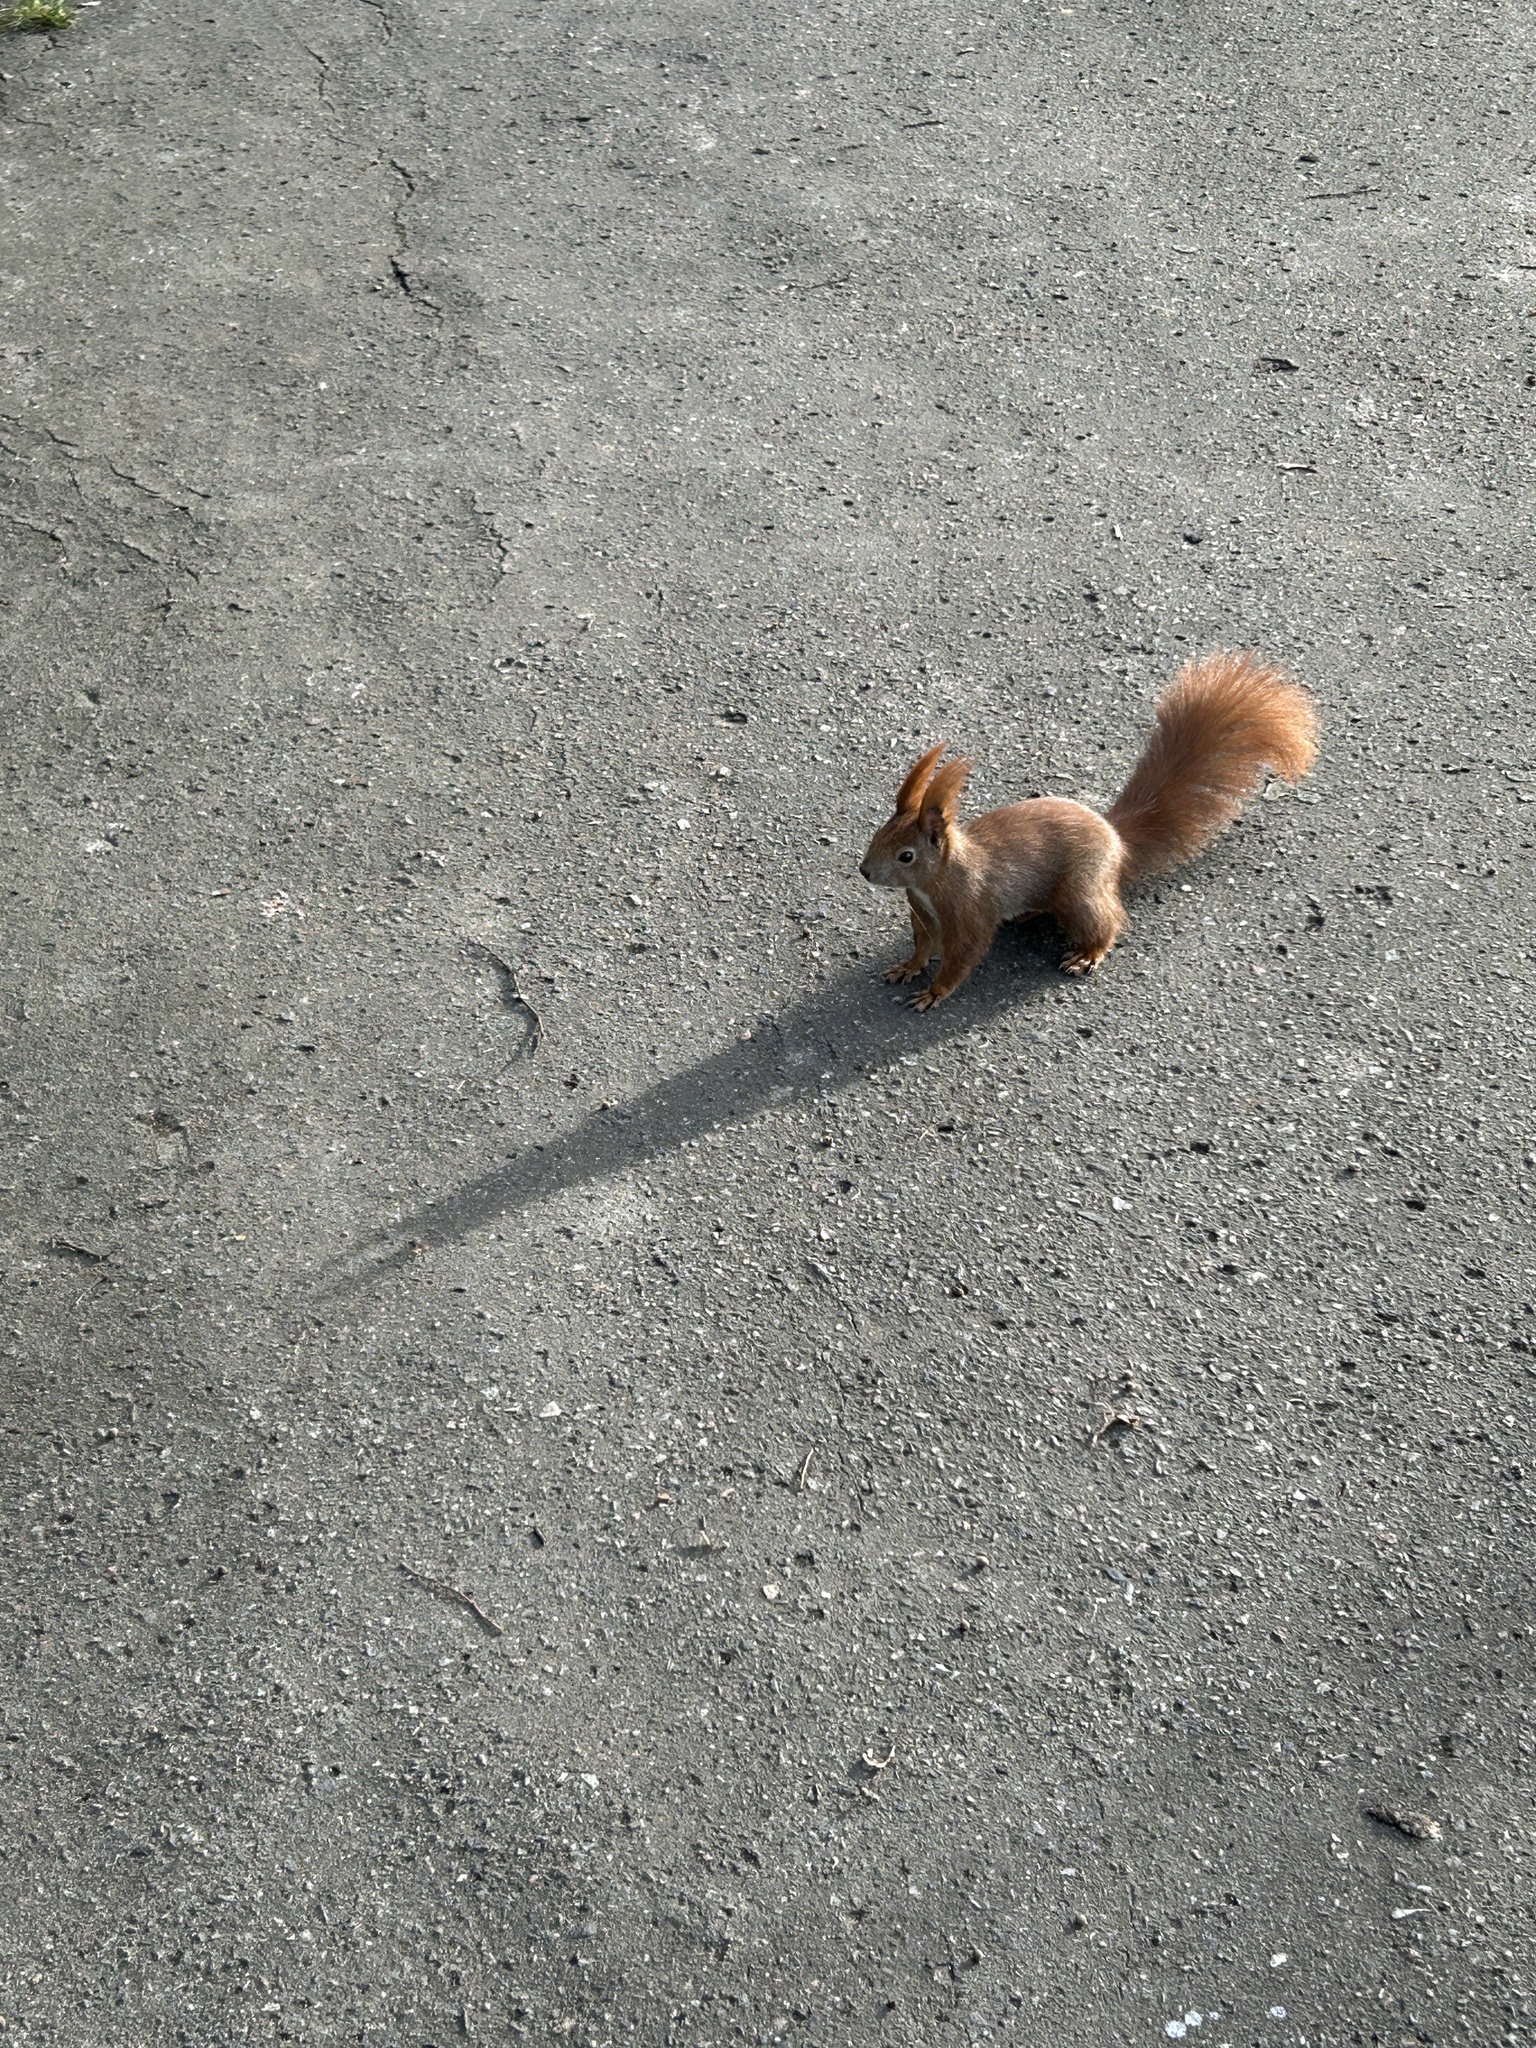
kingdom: Animalia
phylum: Chordata
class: Mammalia
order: Rodentia
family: Sciuridae
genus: Sciurus
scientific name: Sciurus vulgaris
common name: Eurasian red squirrel
